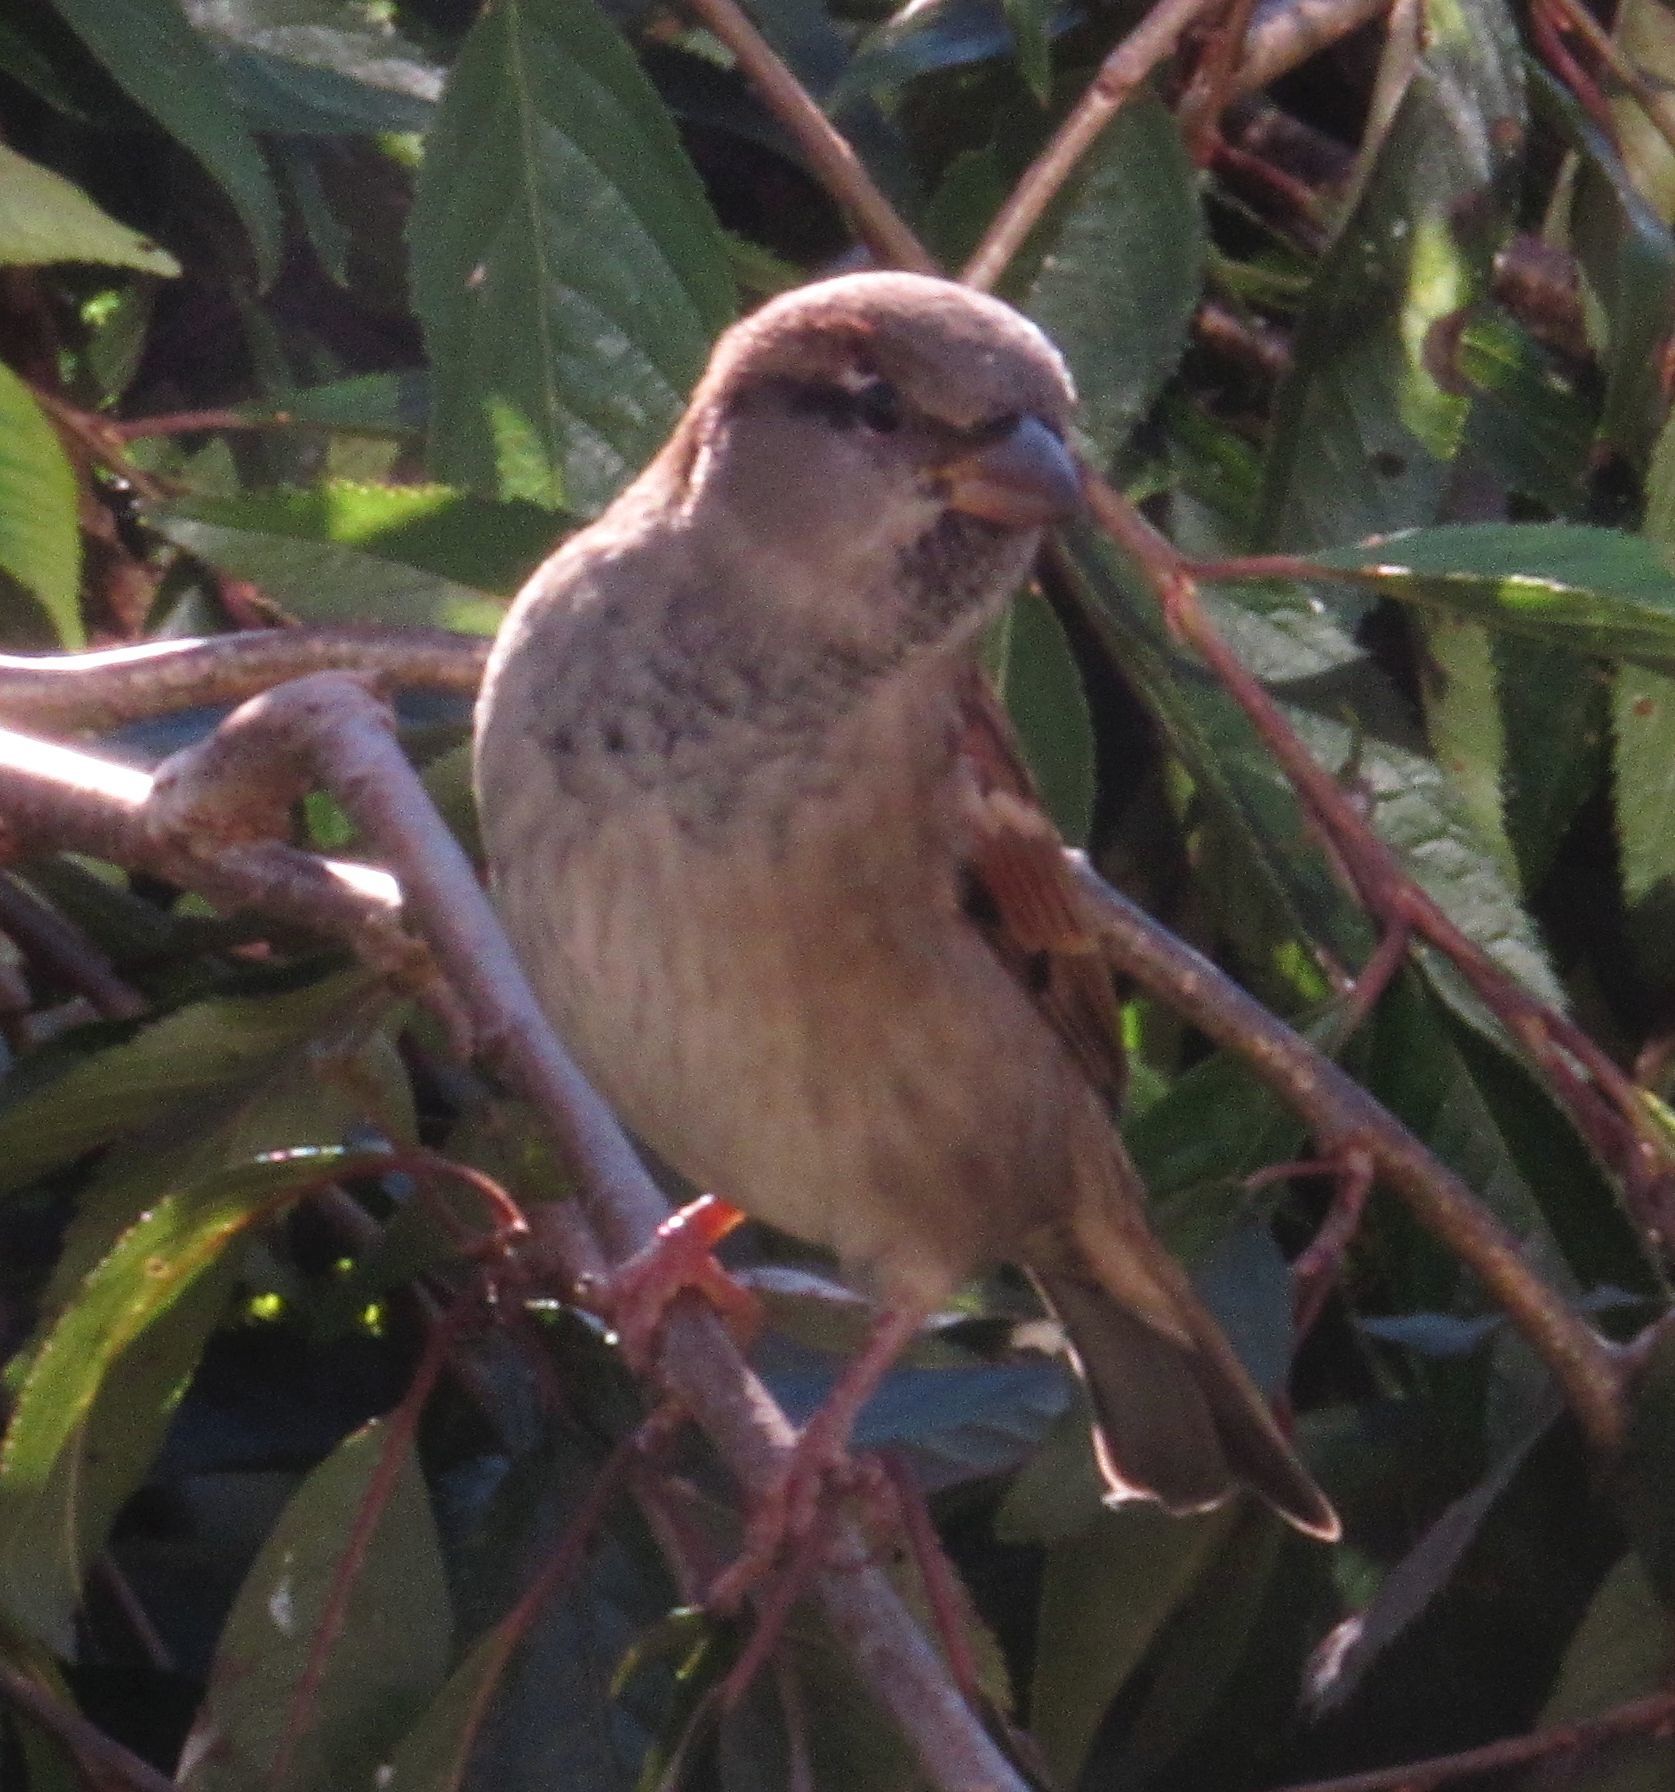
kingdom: Animalia
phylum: Chordata
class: Aves
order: Passeriformes
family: Passeridae
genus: Passer
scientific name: Passer domesticus
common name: House sparrow
